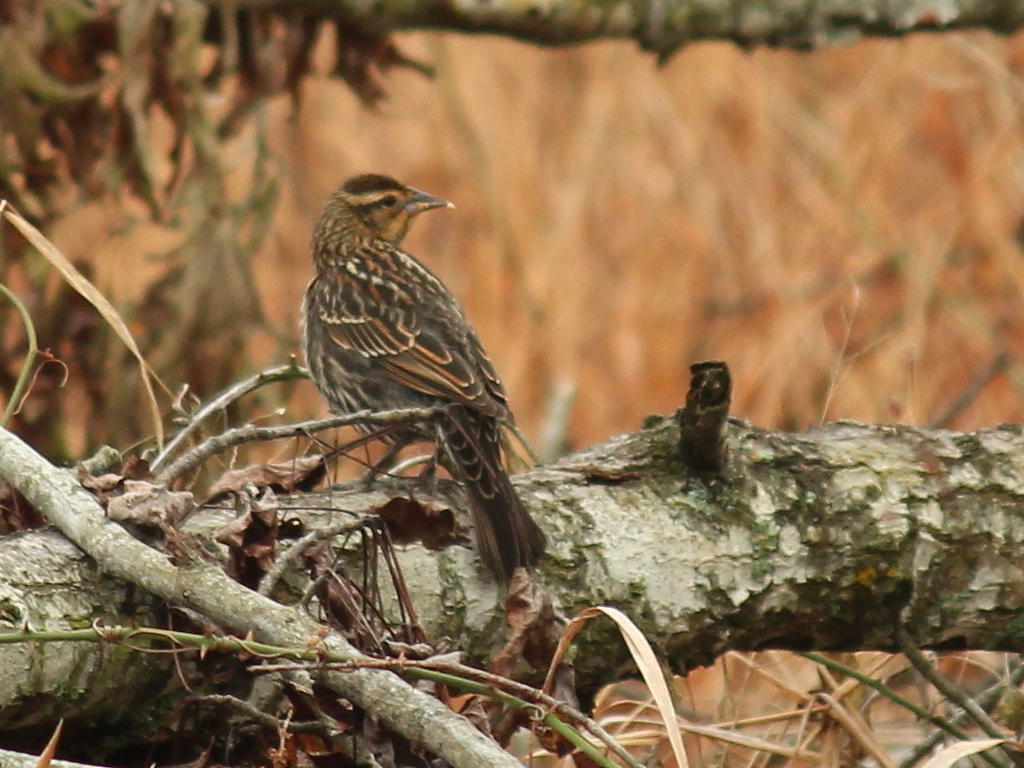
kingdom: Animalia
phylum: Chordata
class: Aves
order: Passeriformes
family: Icteridae
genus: Agelaius
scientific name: Agelaius phoeniceus
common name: Red-winged blackbird
